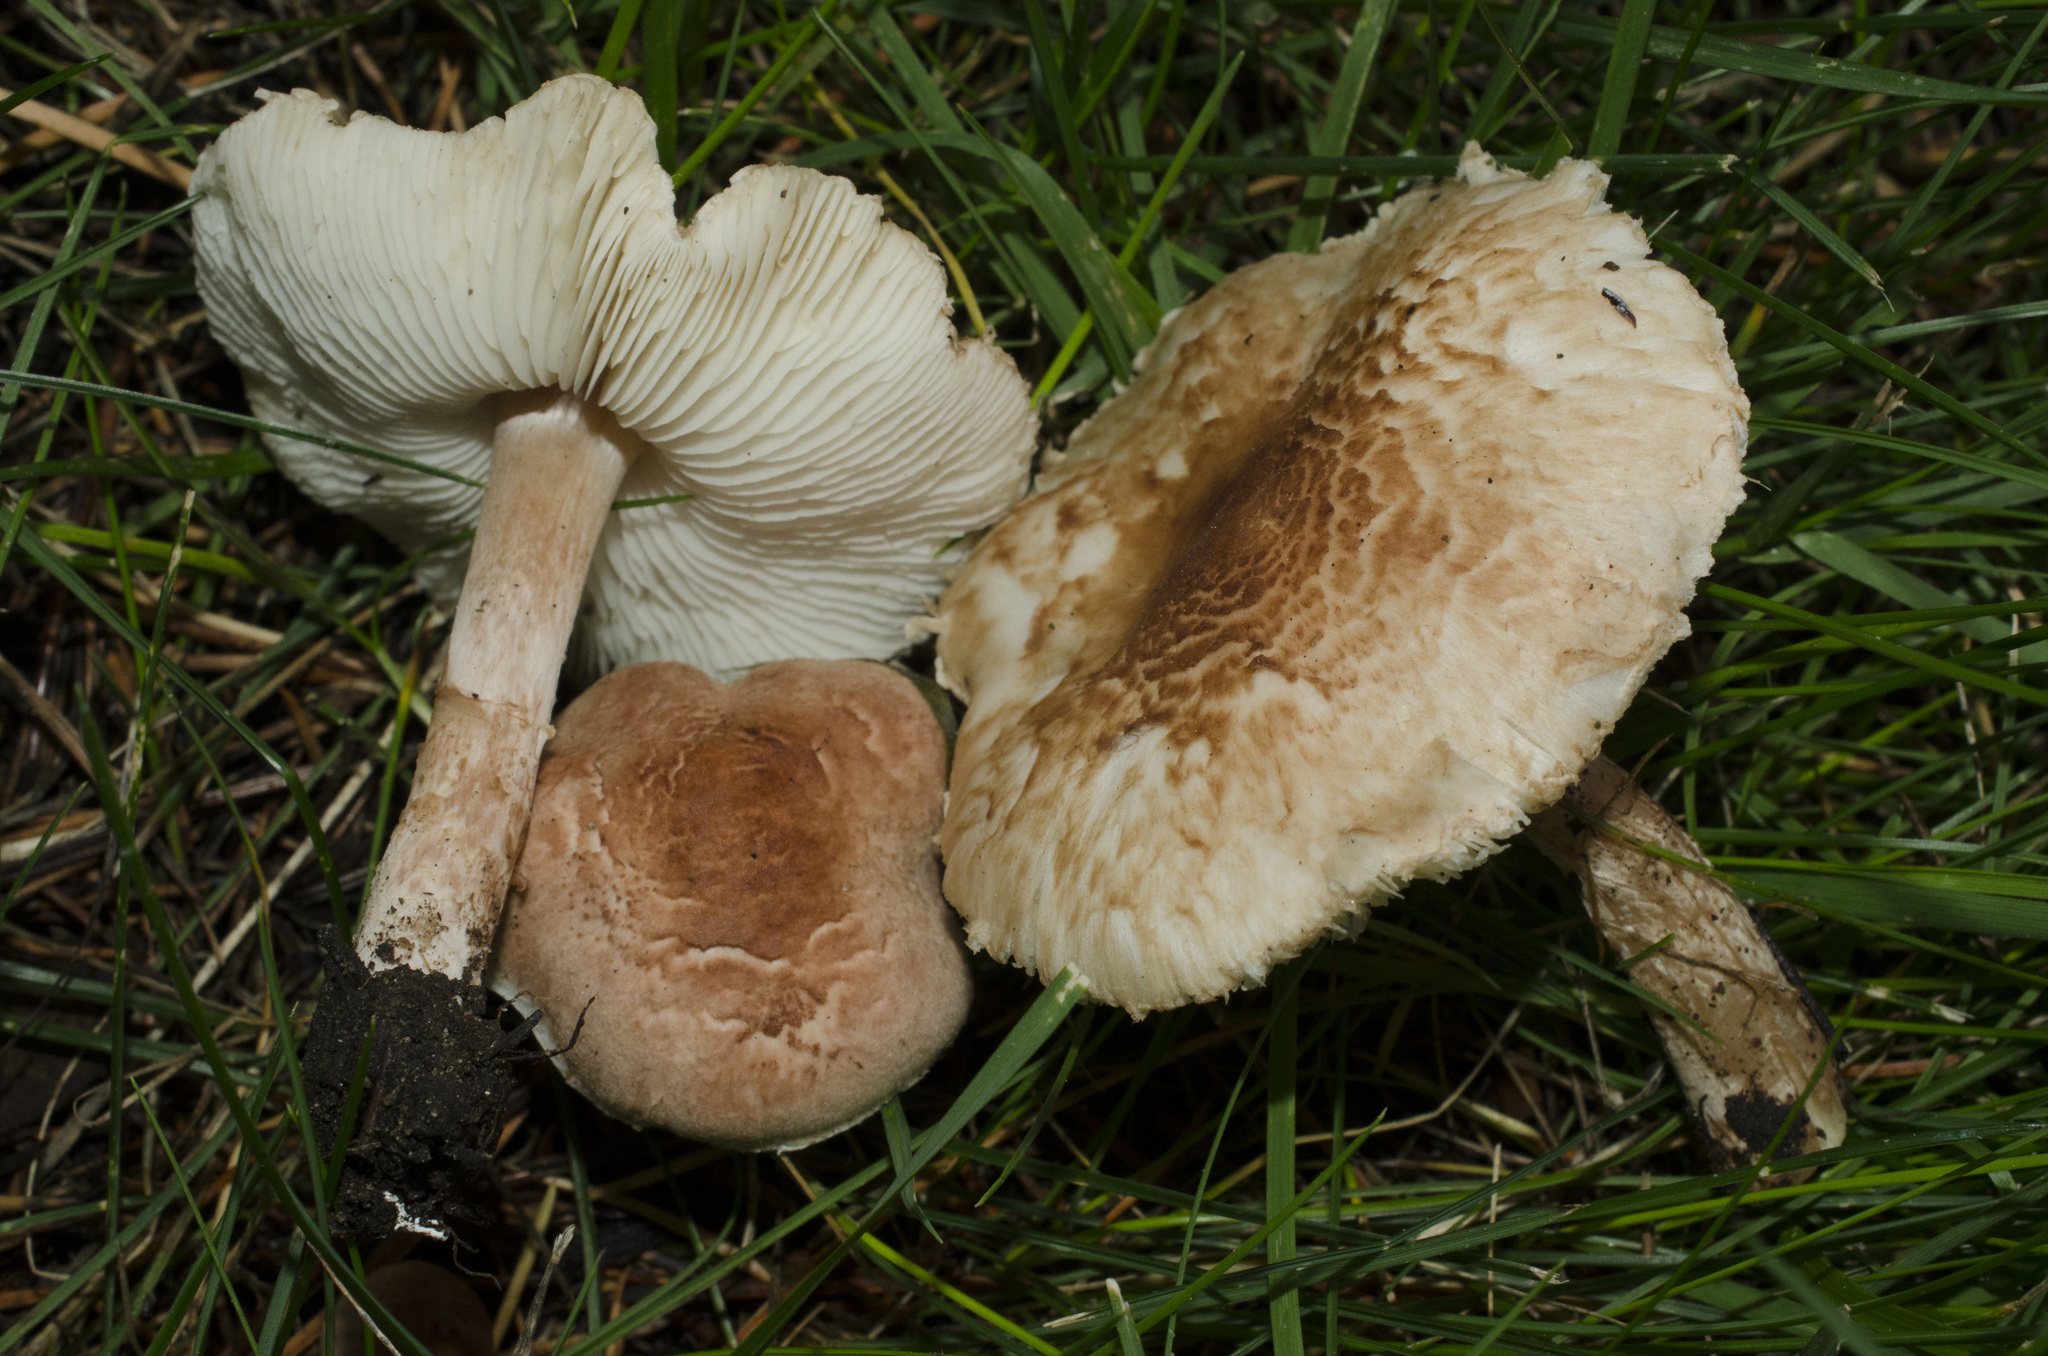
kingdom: Fungi
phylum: Basidiomycota
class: Agaricomycetes
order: Agaricales
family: Agaricaceae
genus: Lepiota
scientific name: Lepiota subincarnata
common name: Fatal dapperling
